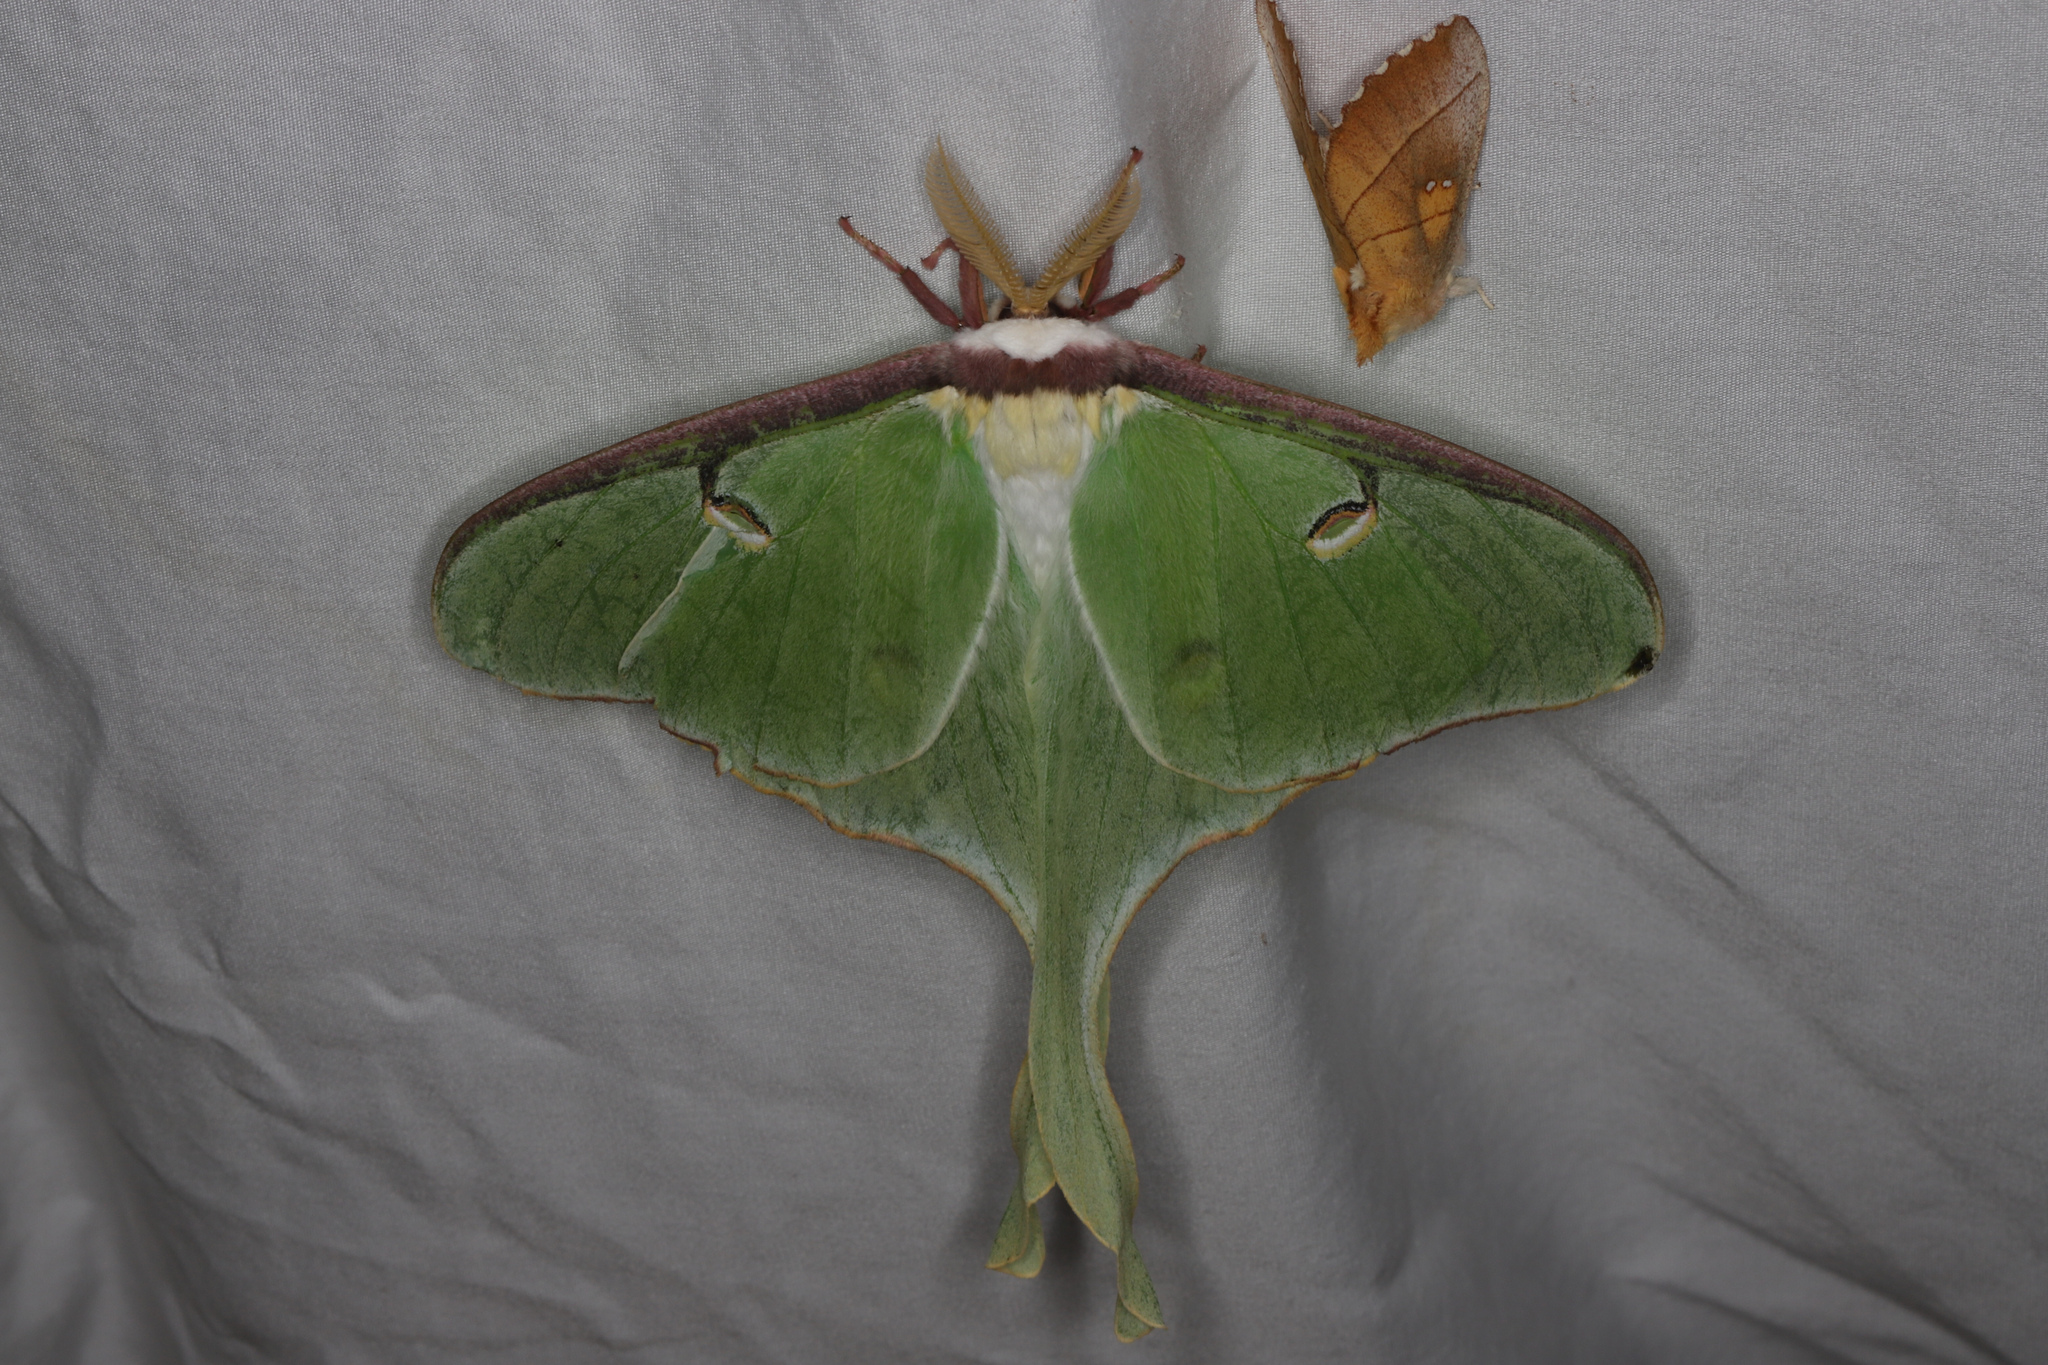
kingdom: Animalia
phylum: Arthropoda
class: Insecta
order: Lepidoptera
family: Saturniidae
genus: Actias
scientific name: Actias luna
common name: Luna moth
